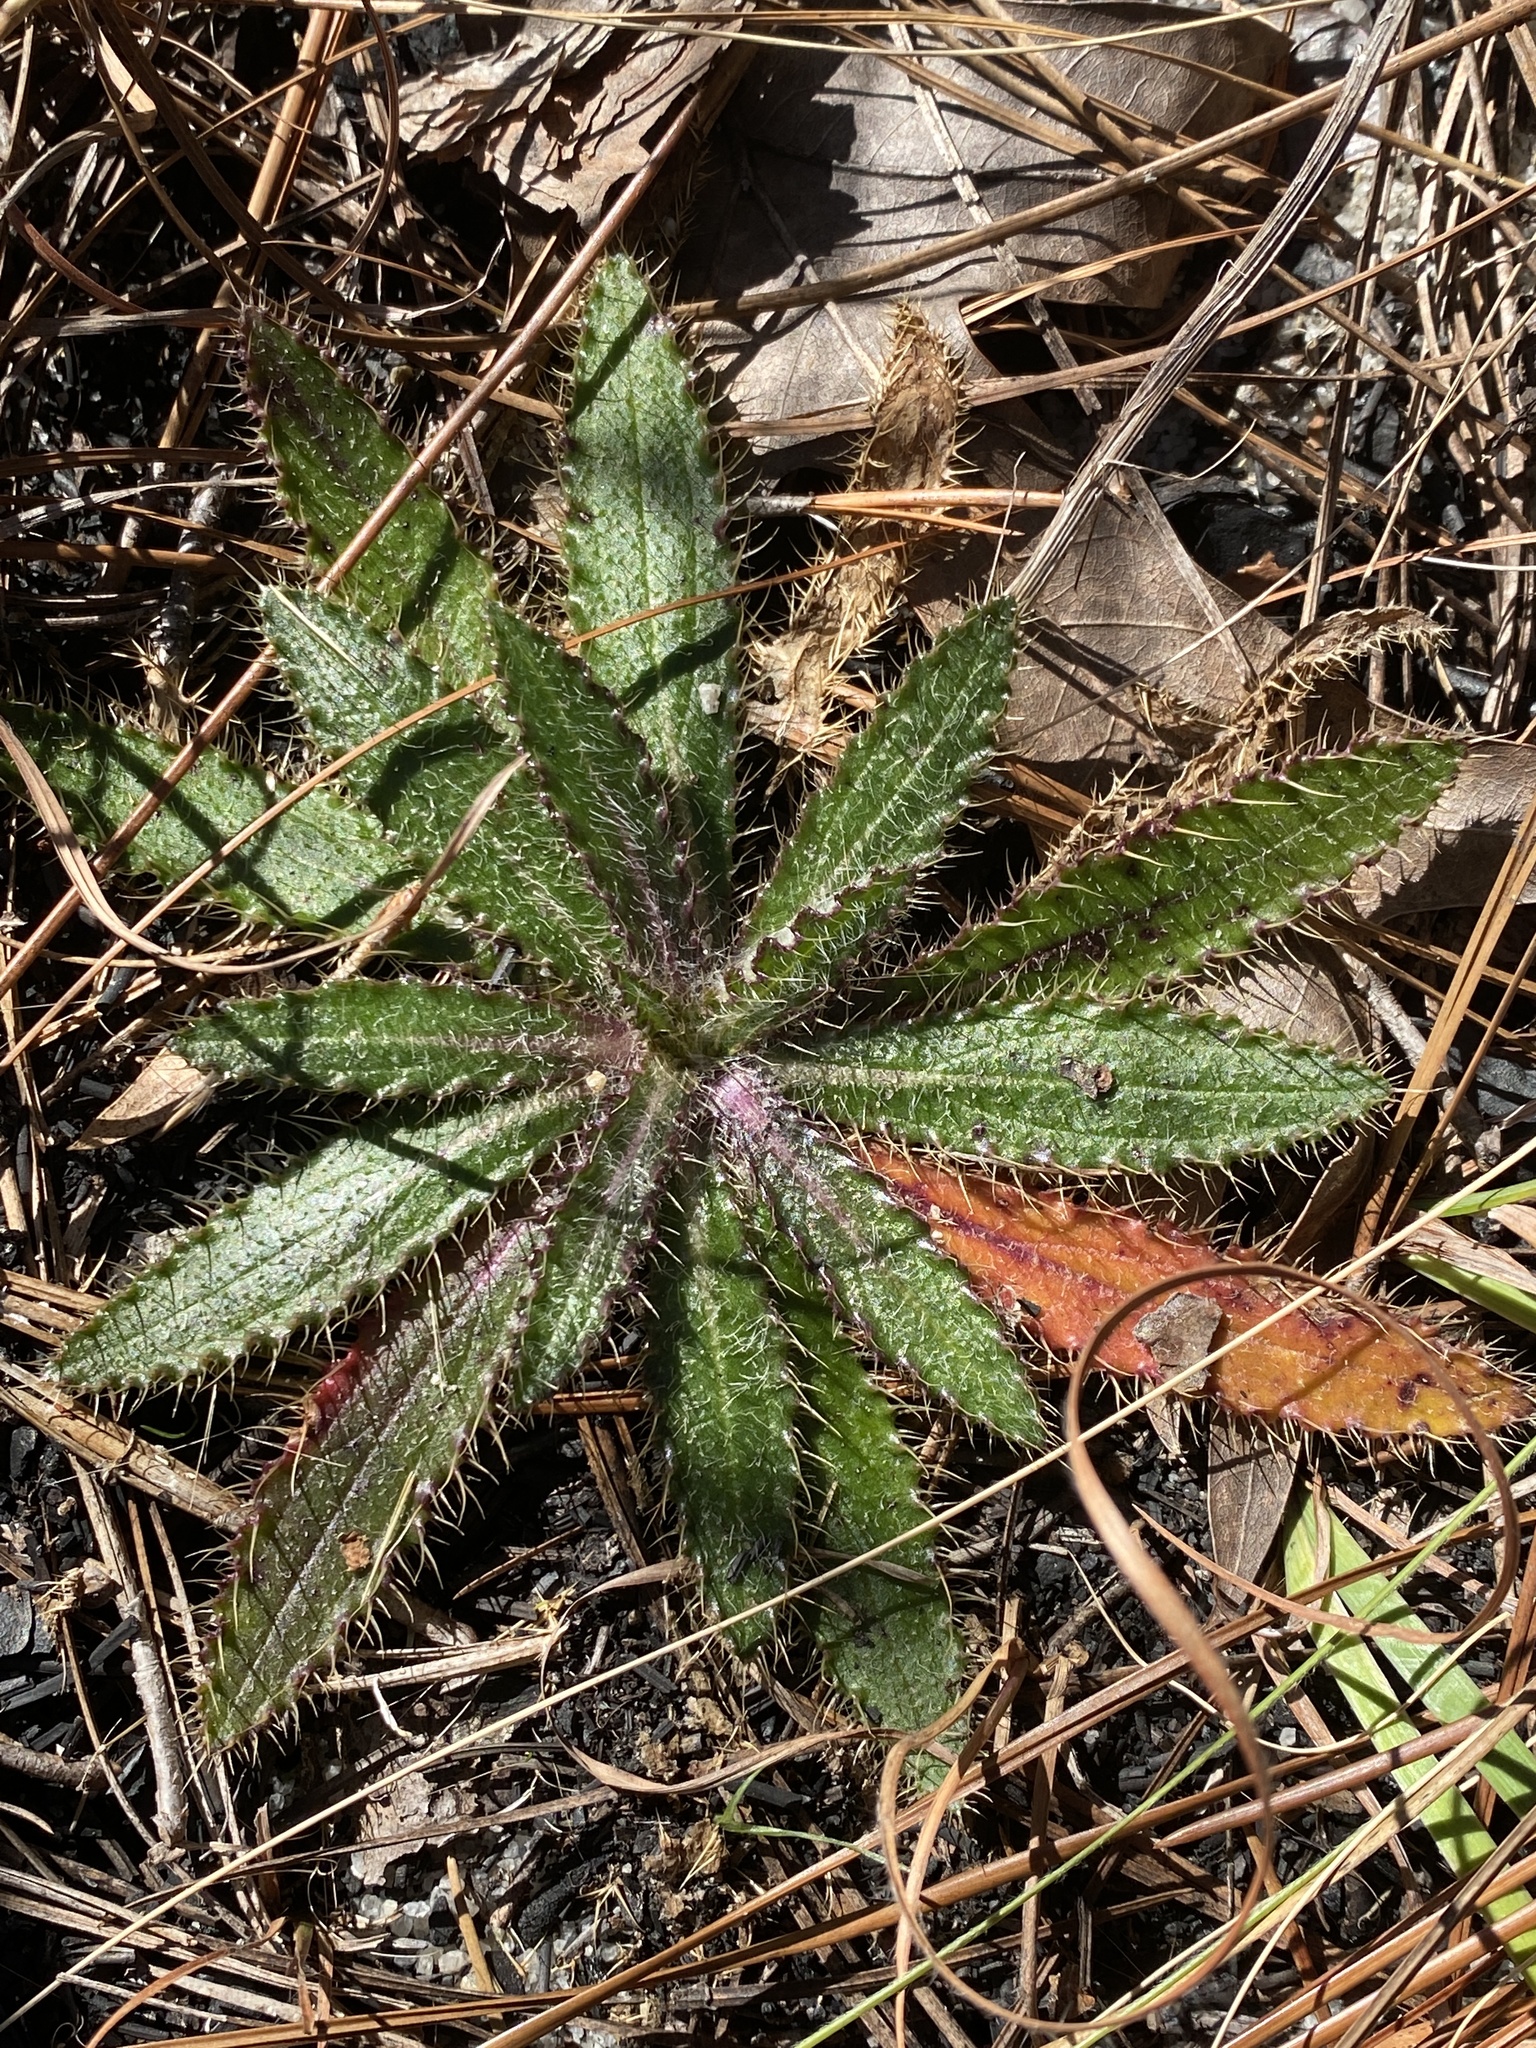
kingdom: Plantae
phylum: Tracheophyta
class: Magnoliopsida
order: Asterales
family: Asteraceae
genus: Cirsium
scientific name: Cirsium repandum
